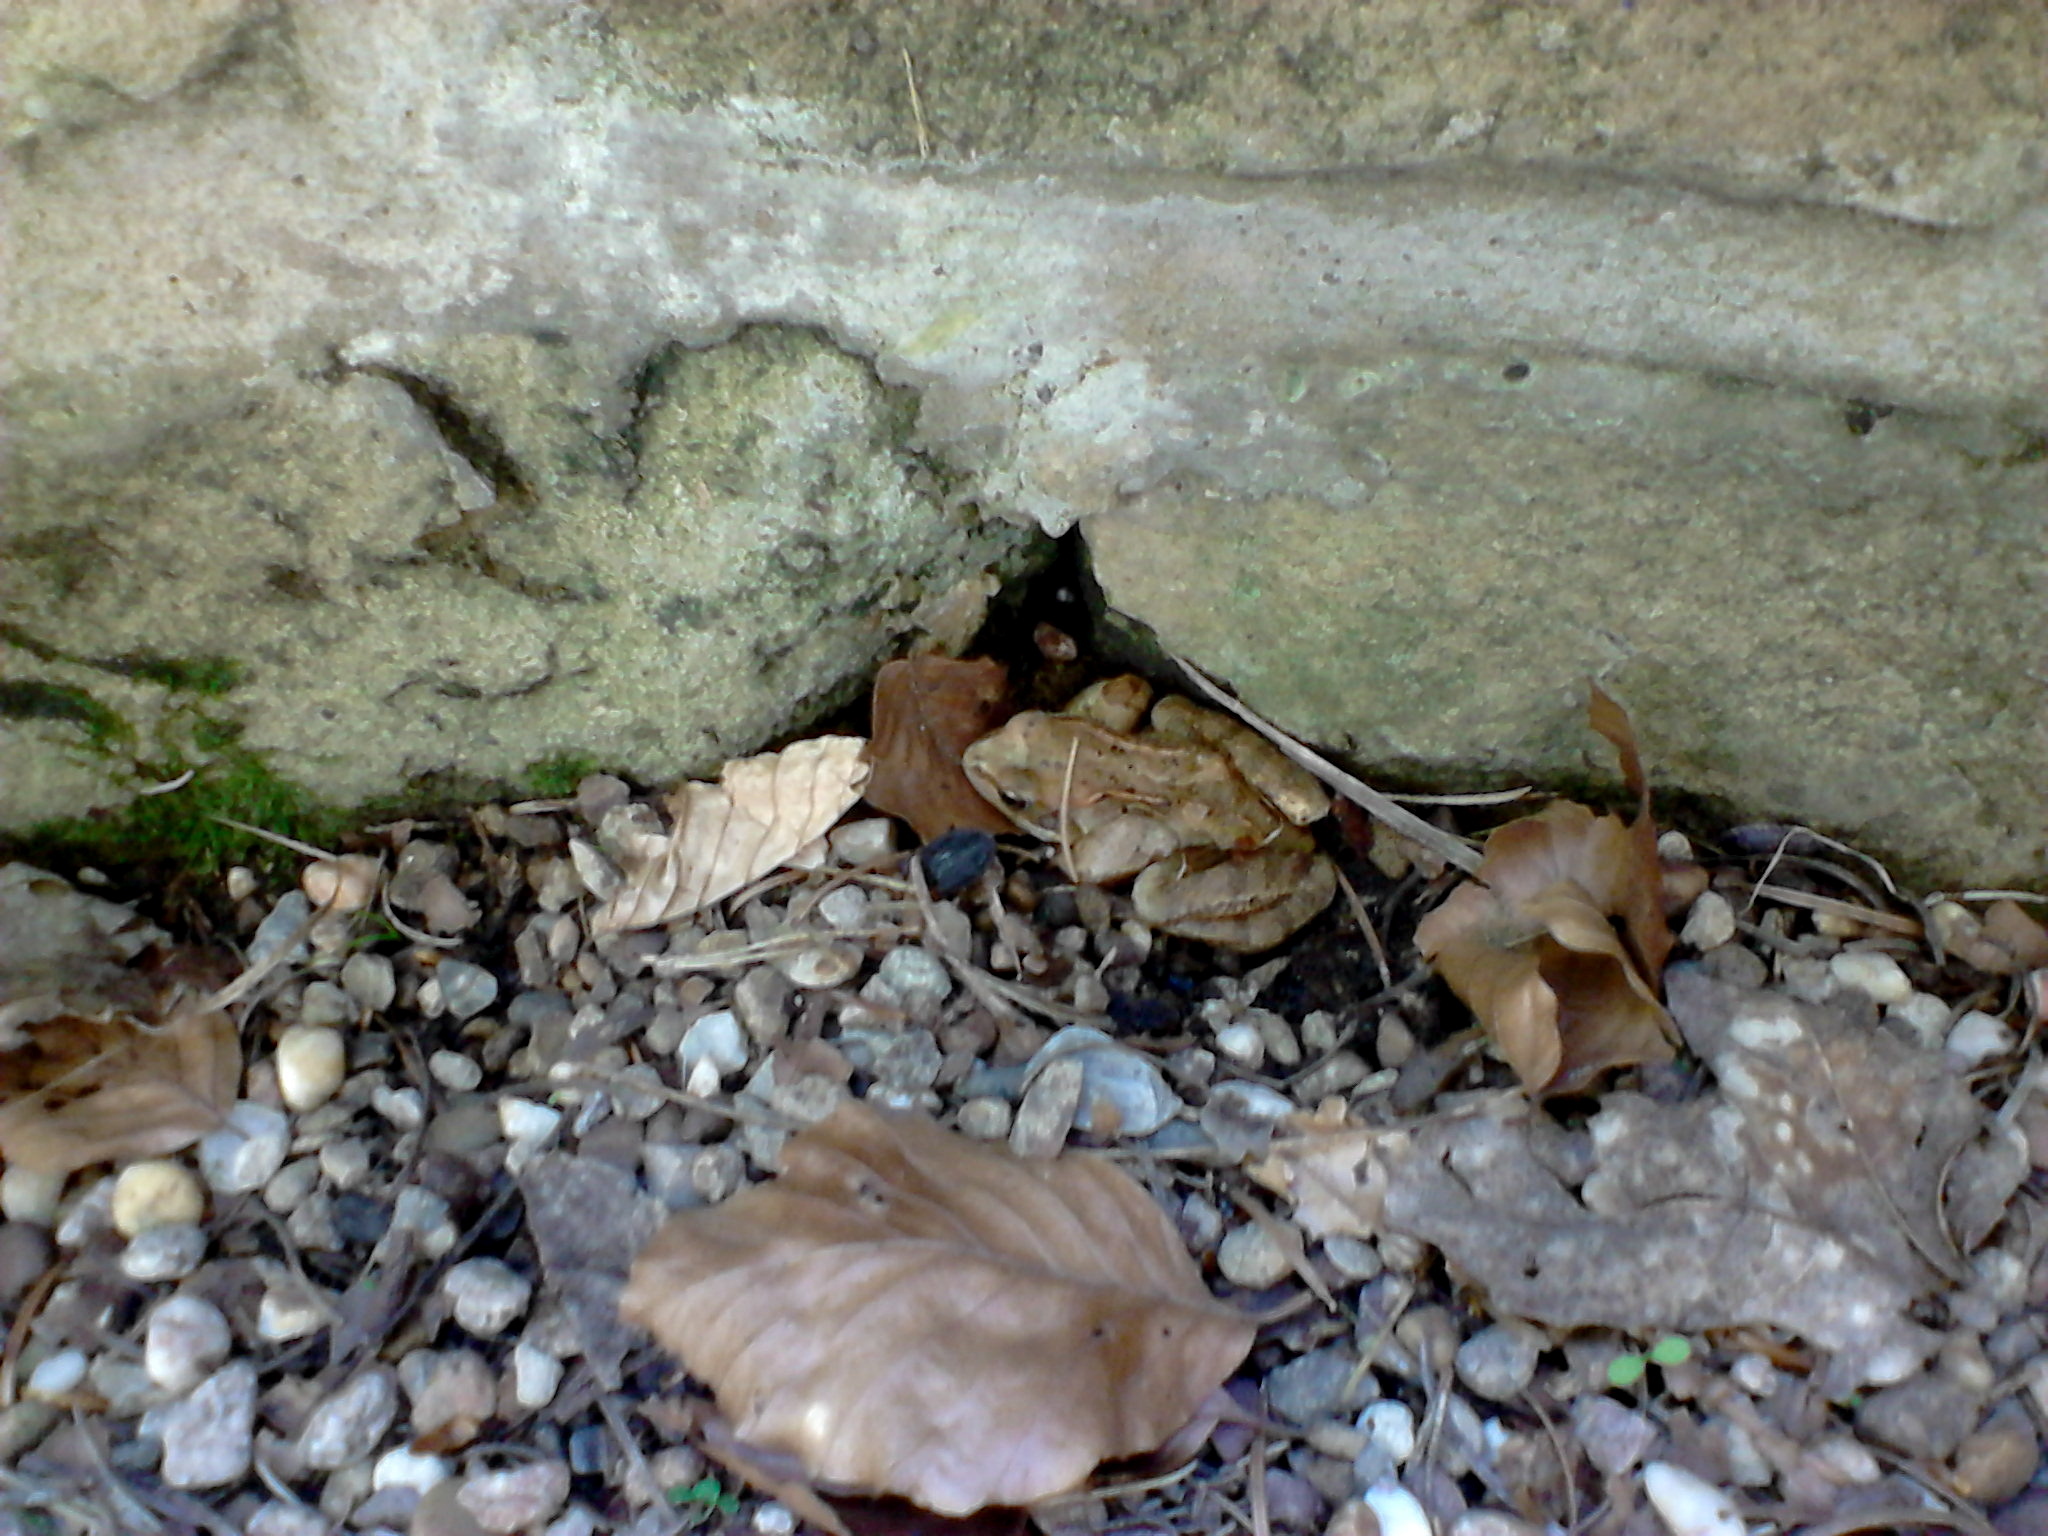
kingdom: Animalia
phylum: Chordata
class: Amphibia
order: Anura
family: Ranidae
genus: Rana
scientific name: Rana temporaria
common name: Common frog
